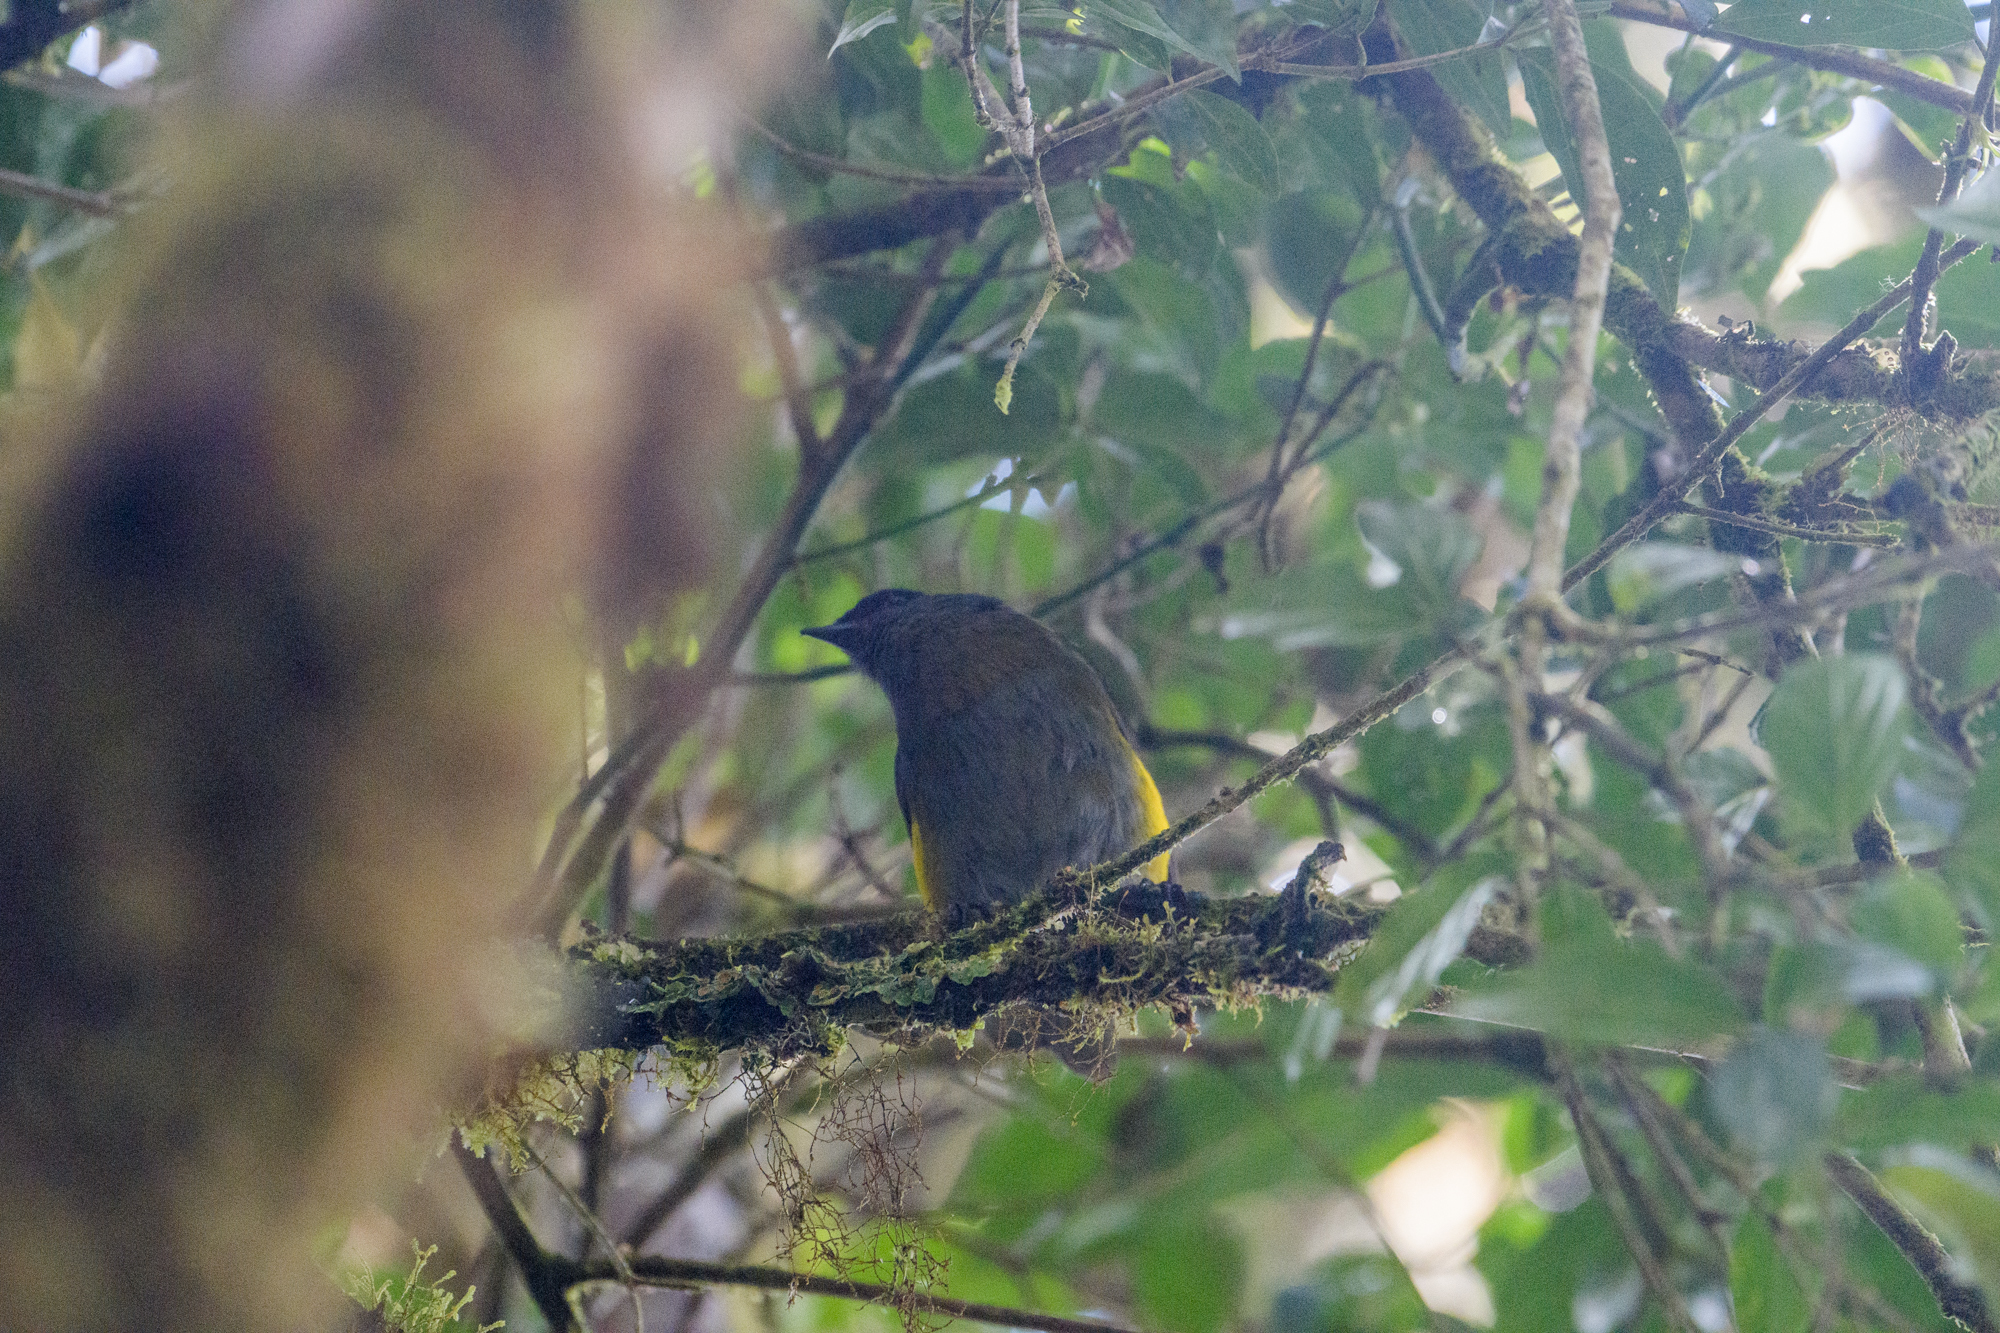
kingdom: Animalia
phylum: Chordata
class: Aves
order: Passeriformes
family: Ptilogonatidae
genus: Phainoptila
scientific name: Phainoptila melanoxantha
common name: Black-and-yellow phainoptila
